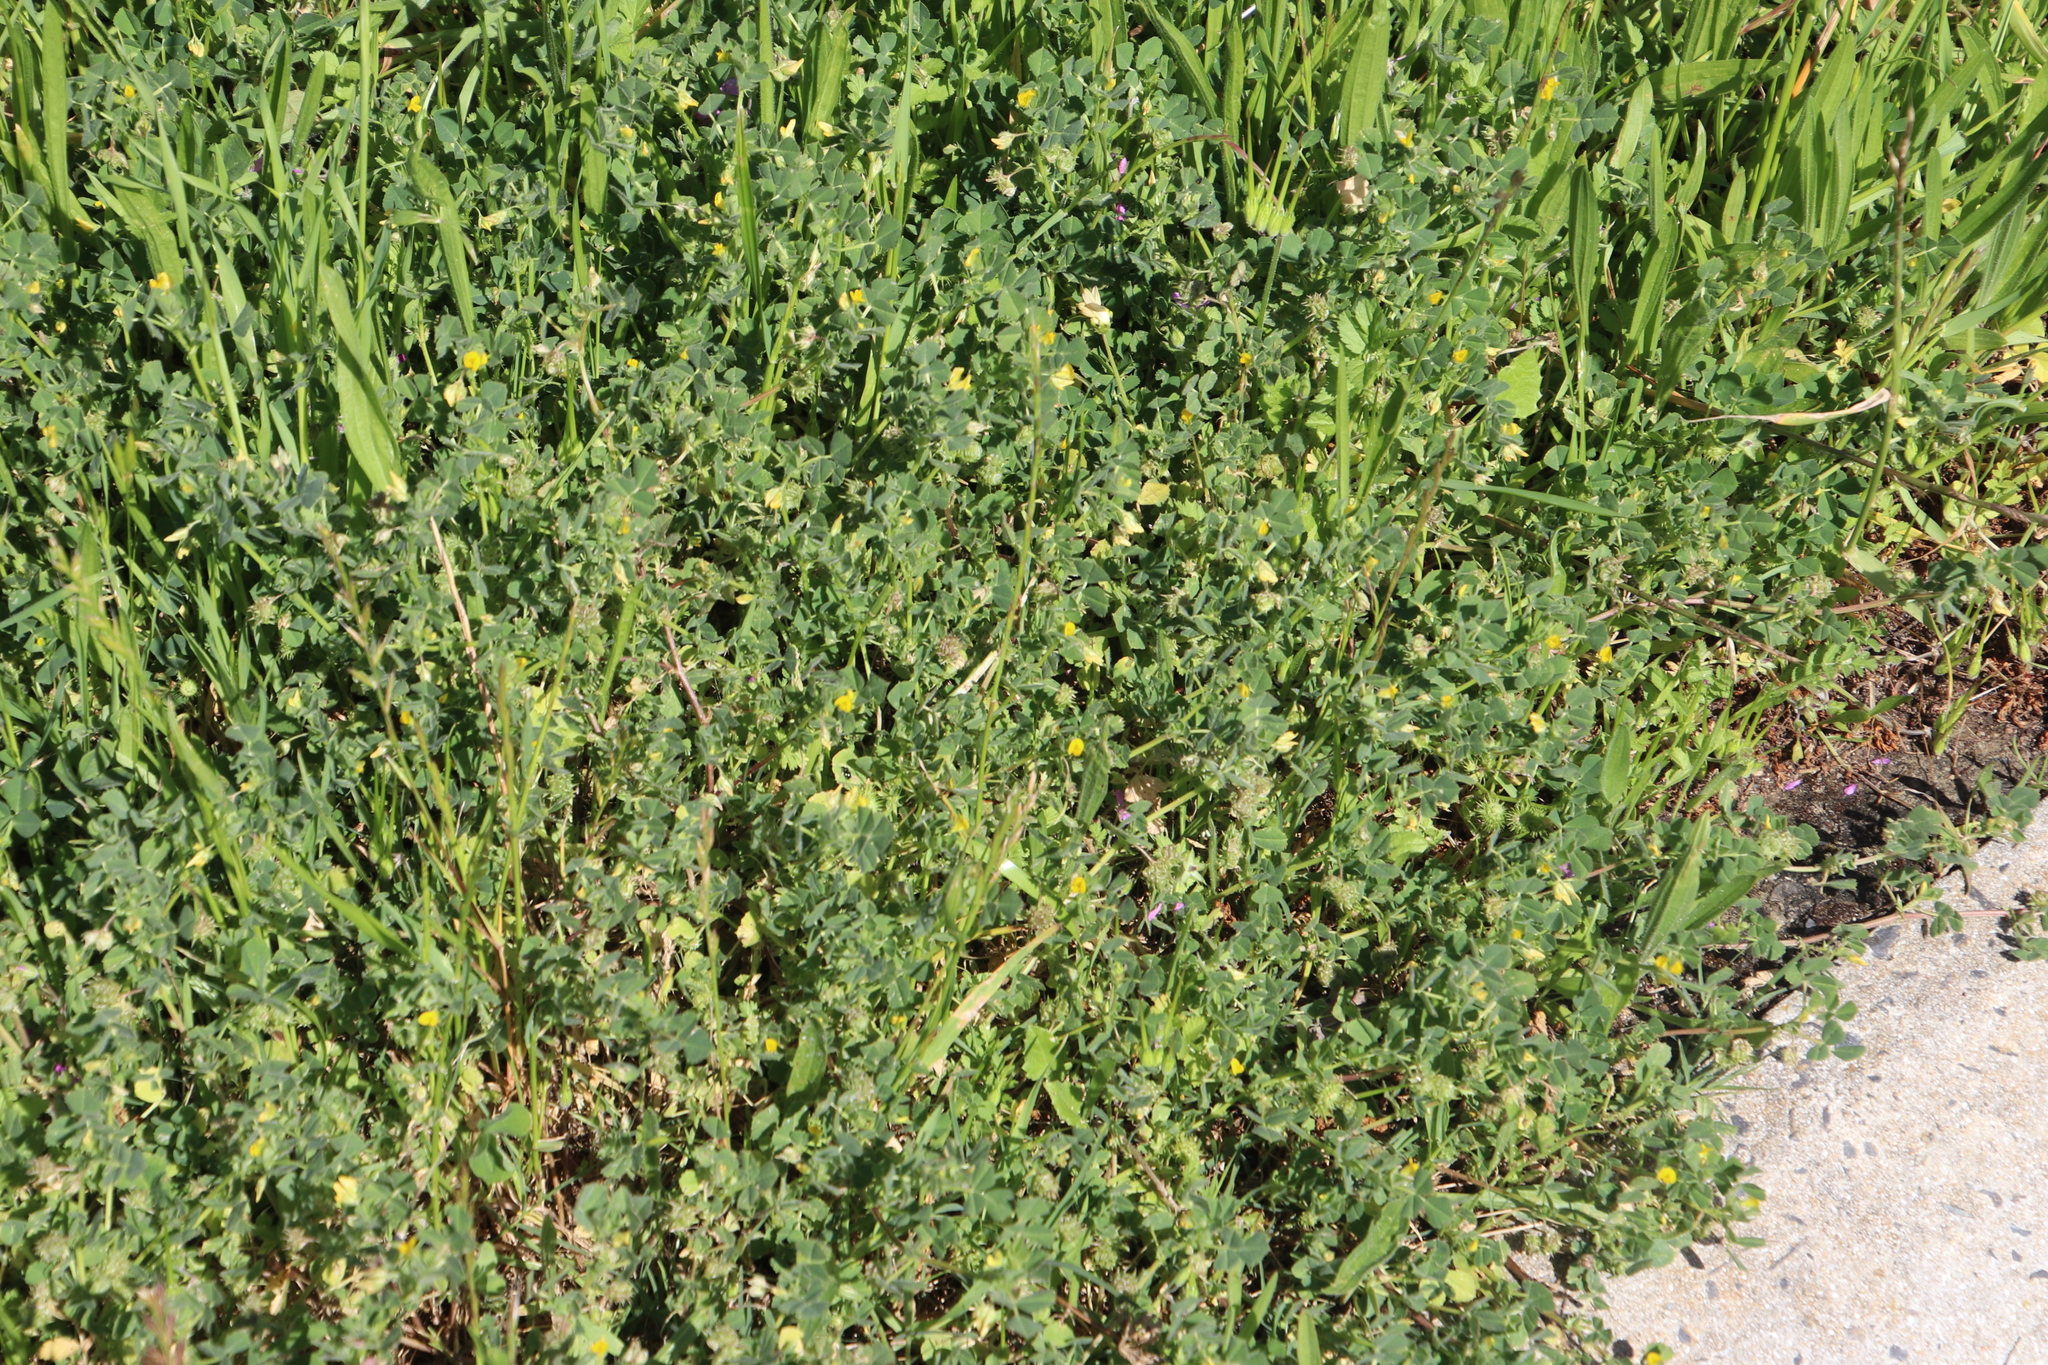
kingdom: Plantae
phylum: Tracheophyta
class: Magnoliopsida
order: Fabales
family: Fabaceae
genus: Trifolium
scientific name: Trifolium dubium
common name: Suckling clover
